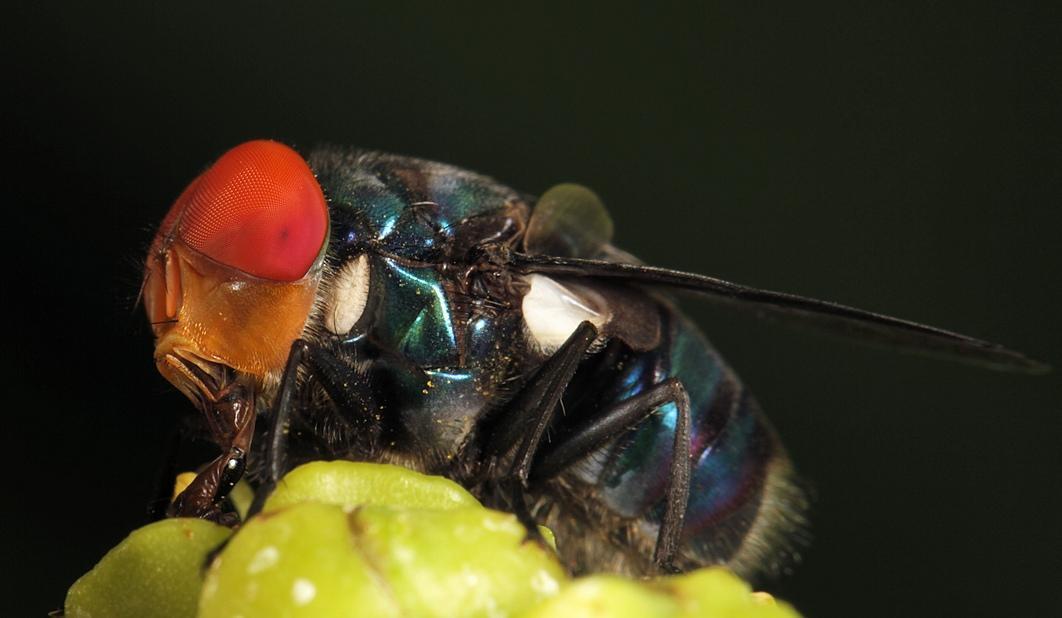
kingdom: Animalia
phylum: Arthropoda
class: Insecta
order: Diptera
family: Calliphoridae
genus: Chrysomya
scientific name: Chrysomya marginalis
